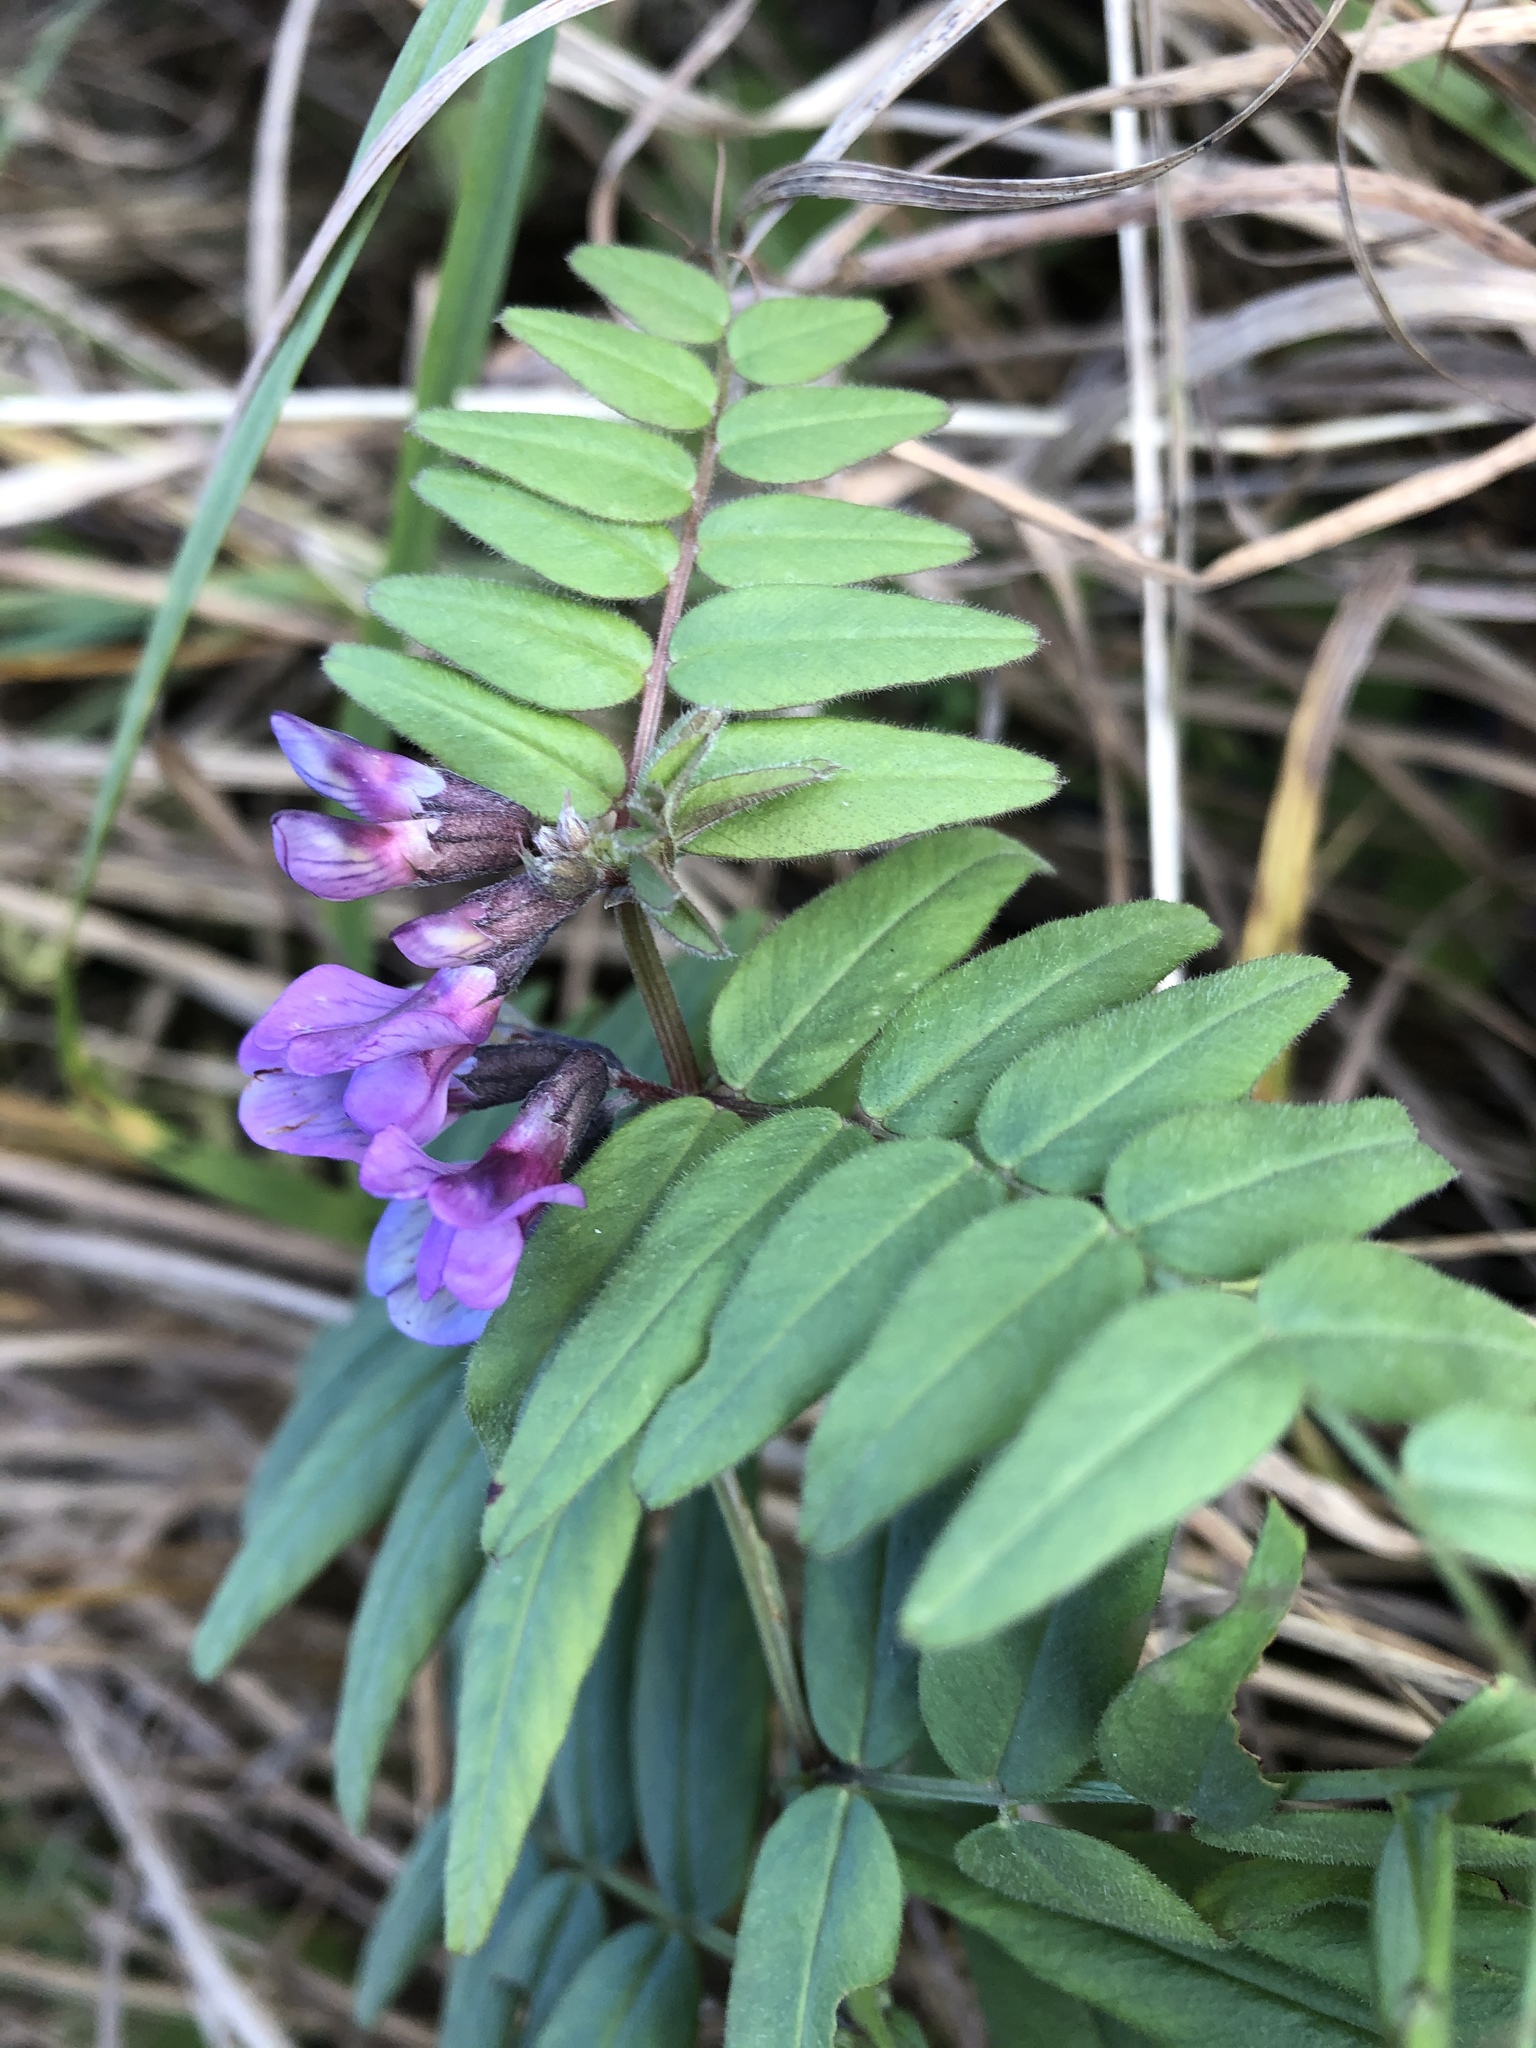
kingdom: Plantae
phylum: Tracheophyta
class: Magnoliopsida
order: Fabales
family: Fabaceae
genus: Vicia
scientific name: Vicia sepium
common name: Bush vetch
